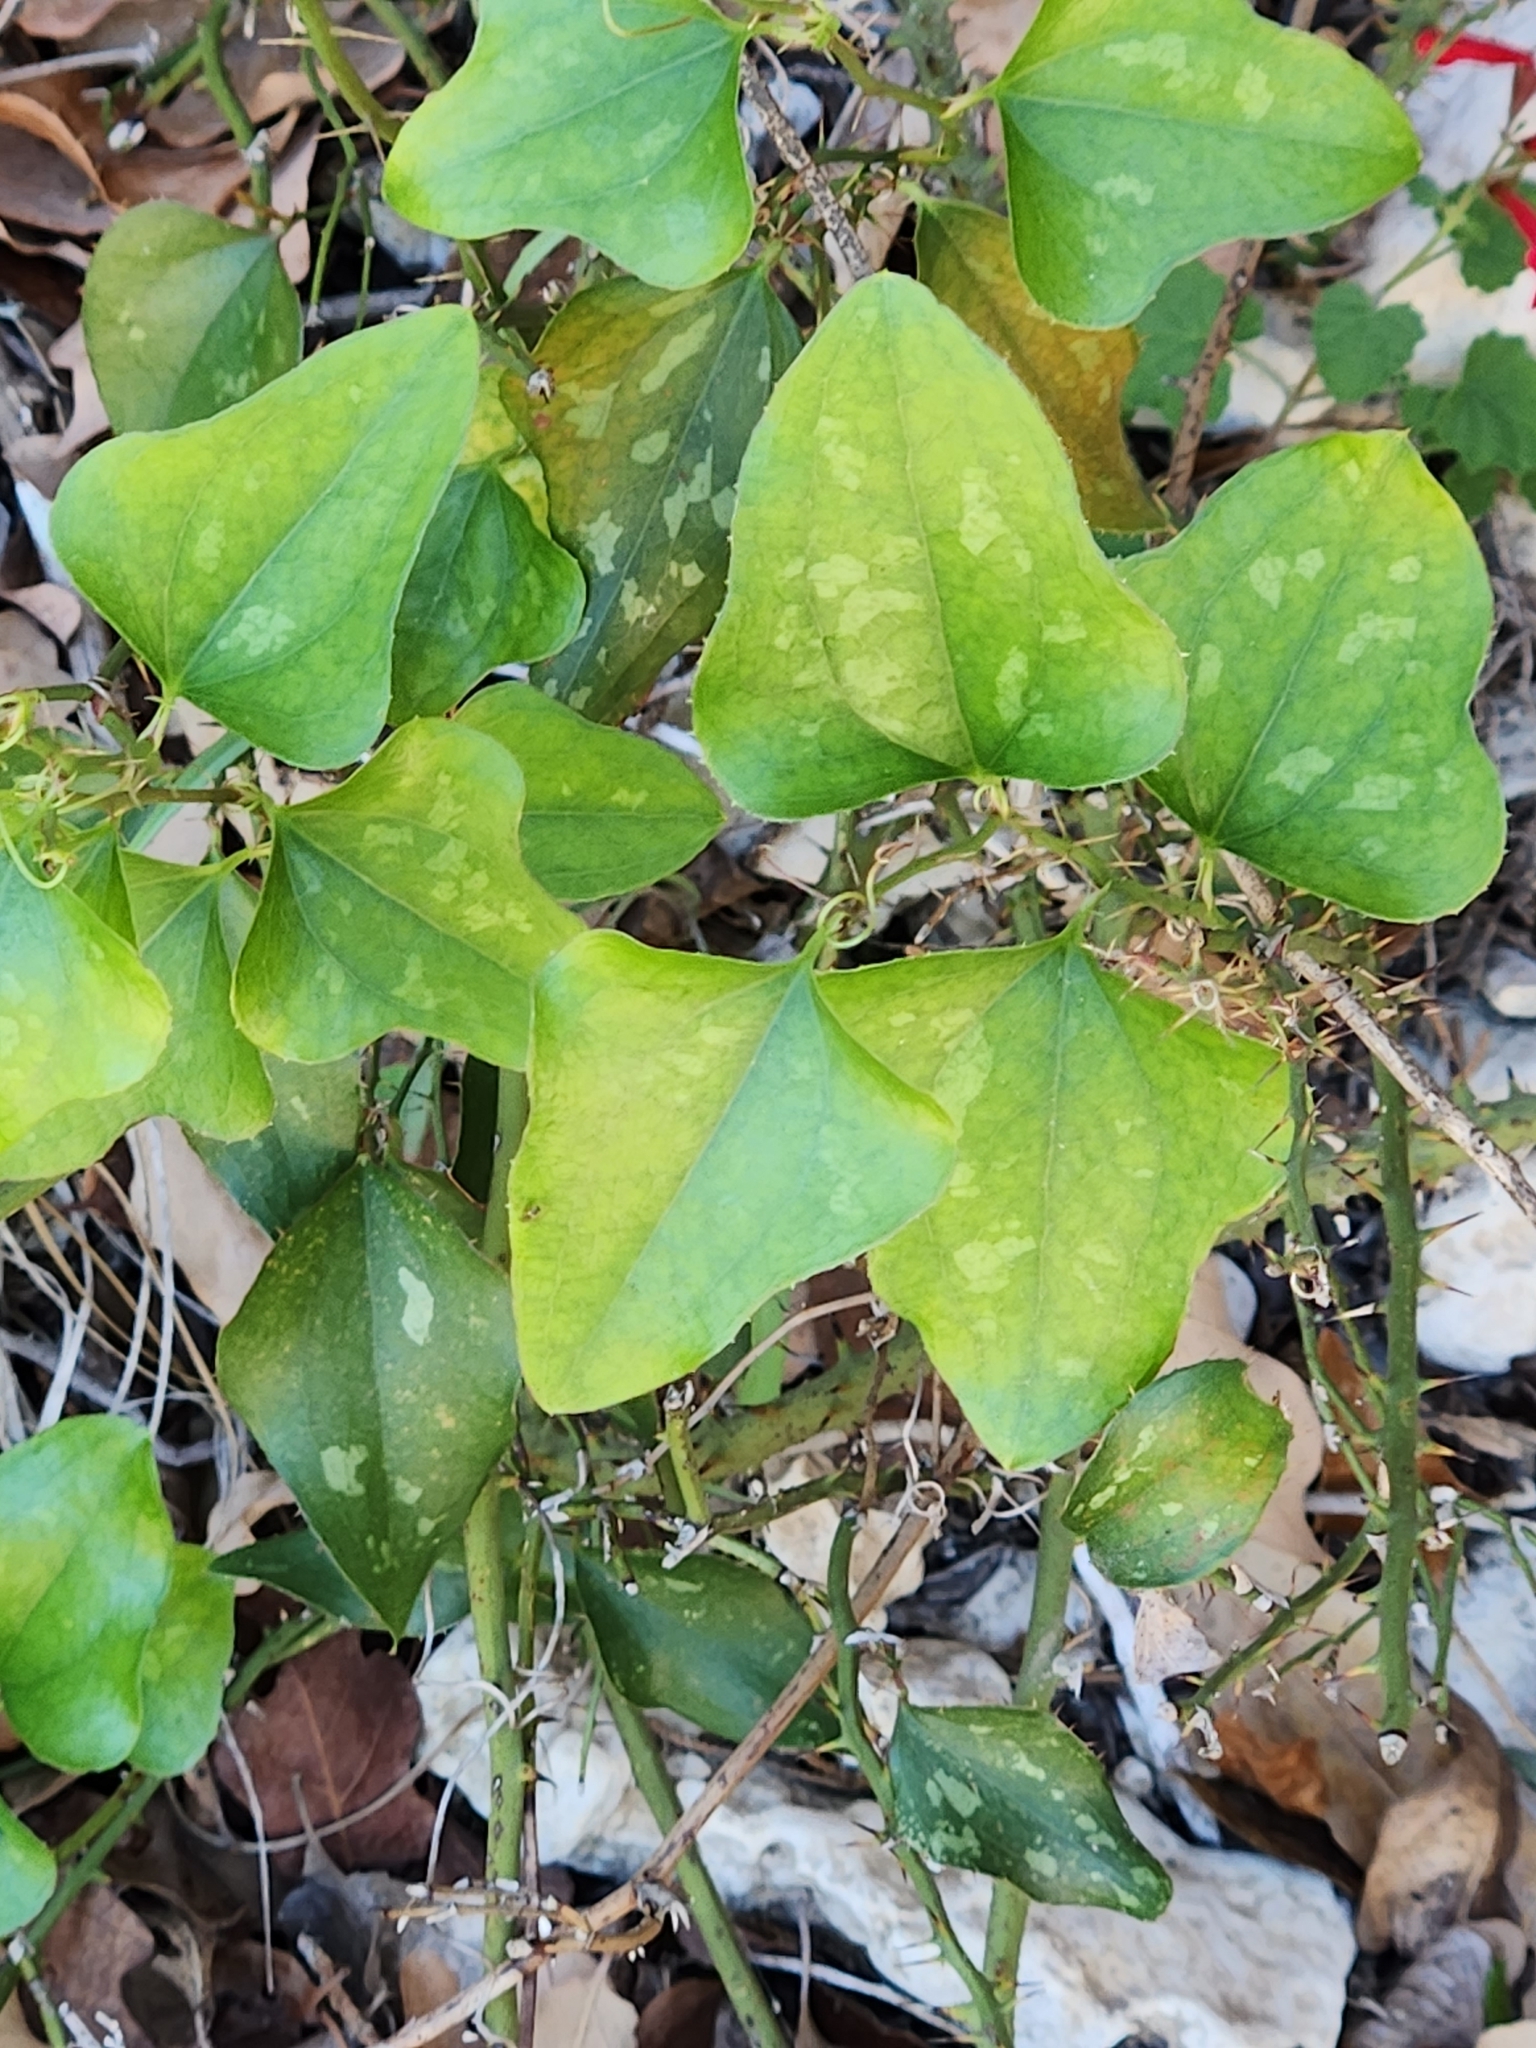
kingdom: Plantae
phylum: Tracheophyta
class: Liliopsida
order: Liliales
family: Smilacaceae
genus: Smilax
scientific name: Smilax bona-nox
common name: Catbrier
